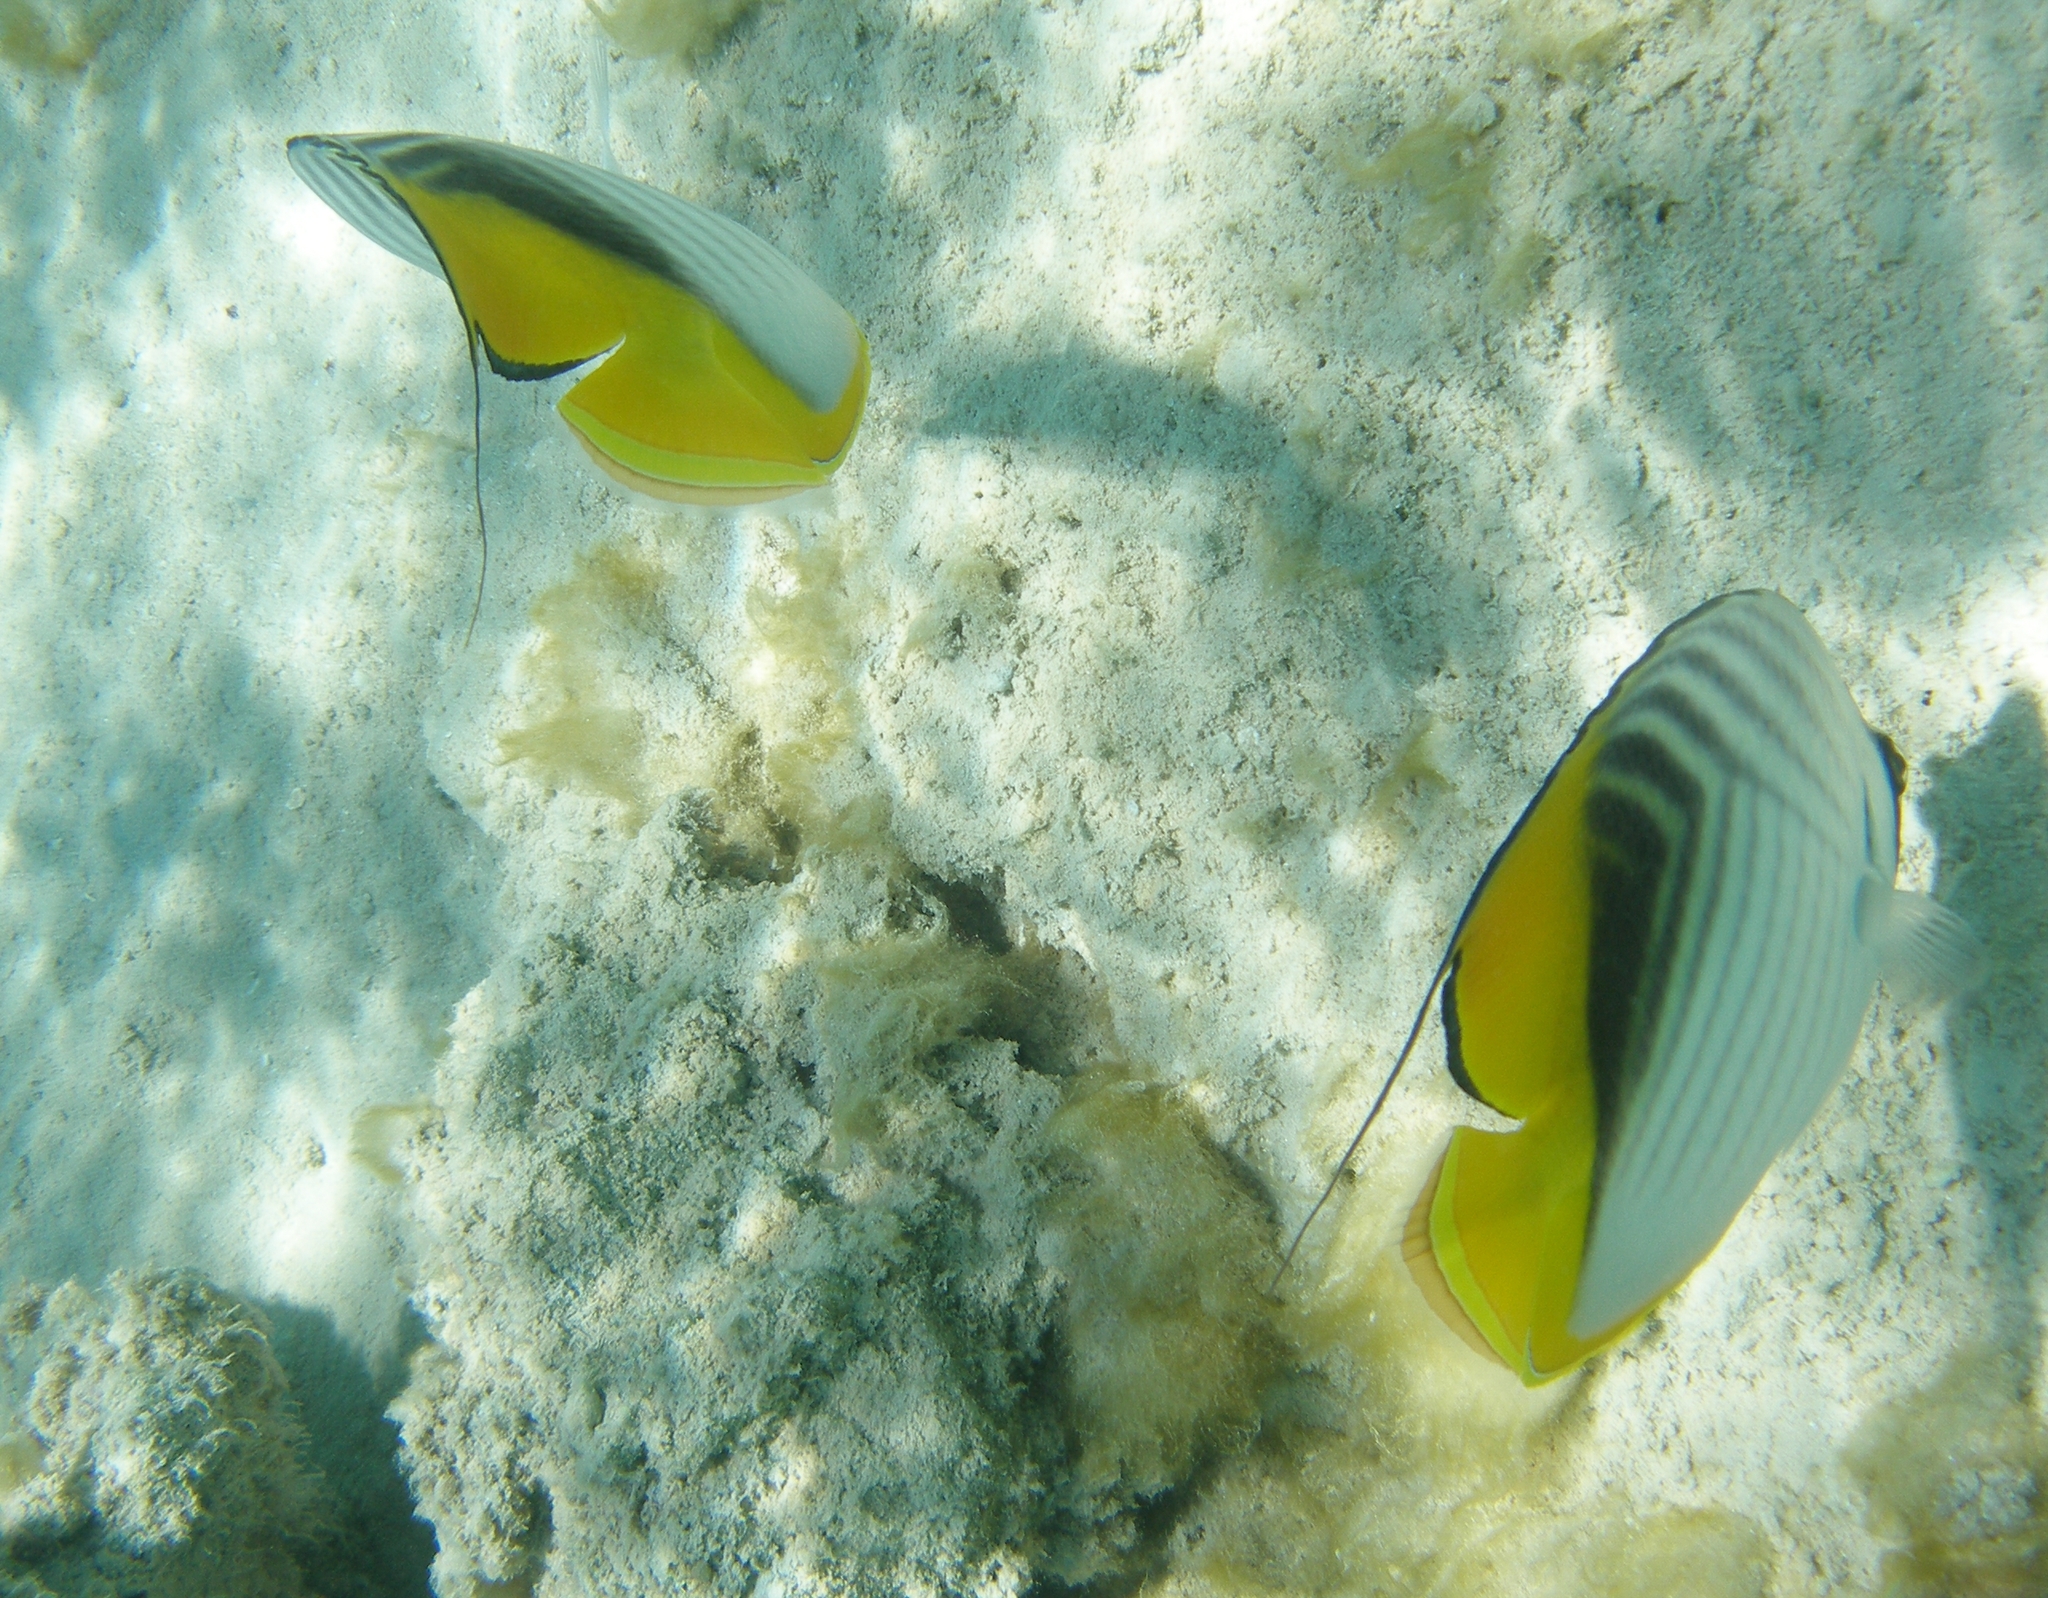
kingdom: Animalia
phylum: Chordata
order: Perciformes
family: Chaetodontidae
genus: Chaetodon
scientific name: Chaetodon auriga
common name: Threadfin butterflyfish
